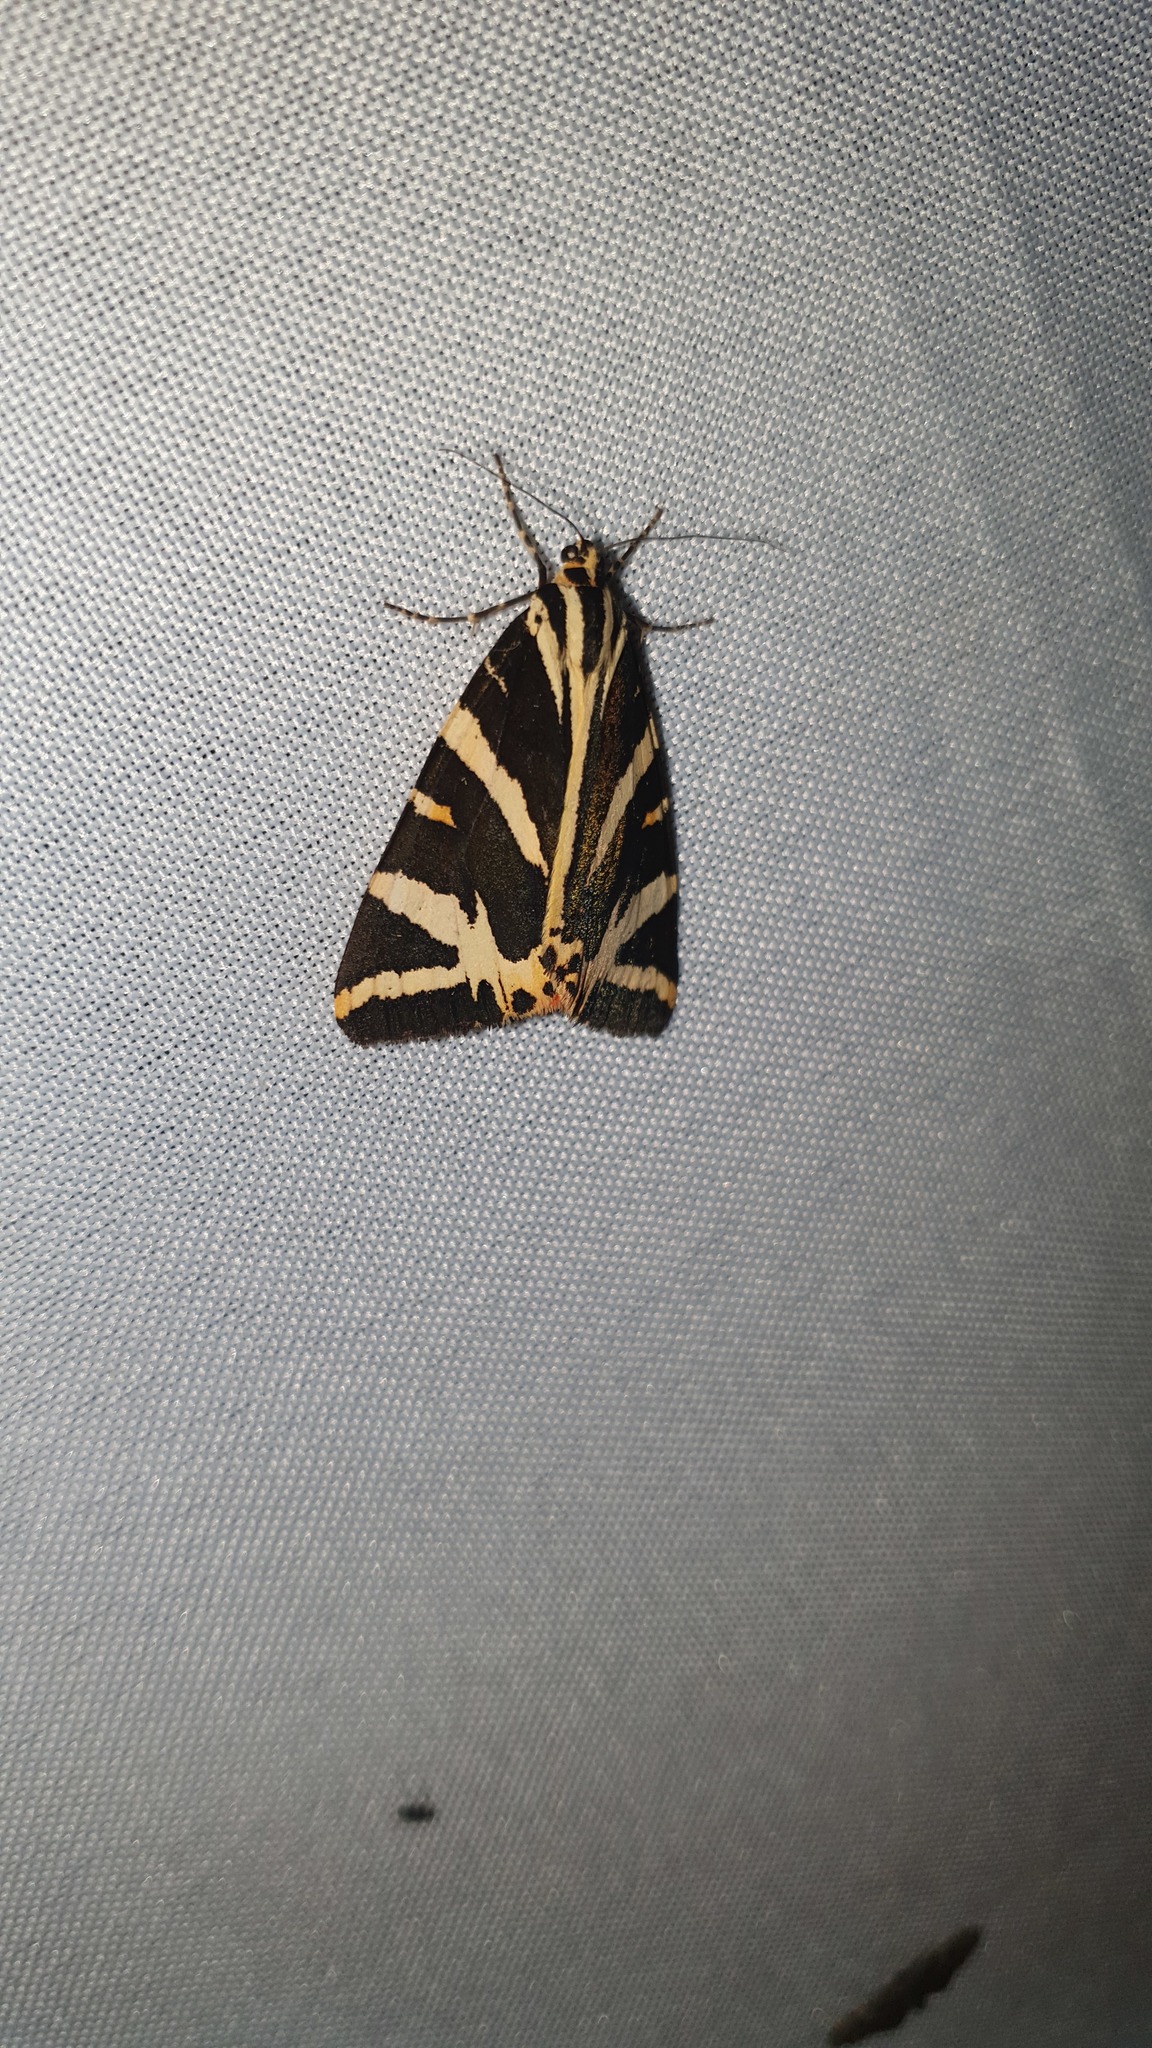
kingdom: Animalia
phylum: Arthropoda
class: Insecta
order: Lepidoptera
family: Erebidae
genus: Euplagia
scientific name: Euplagia quadripunctaria
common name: Jersey tiger
